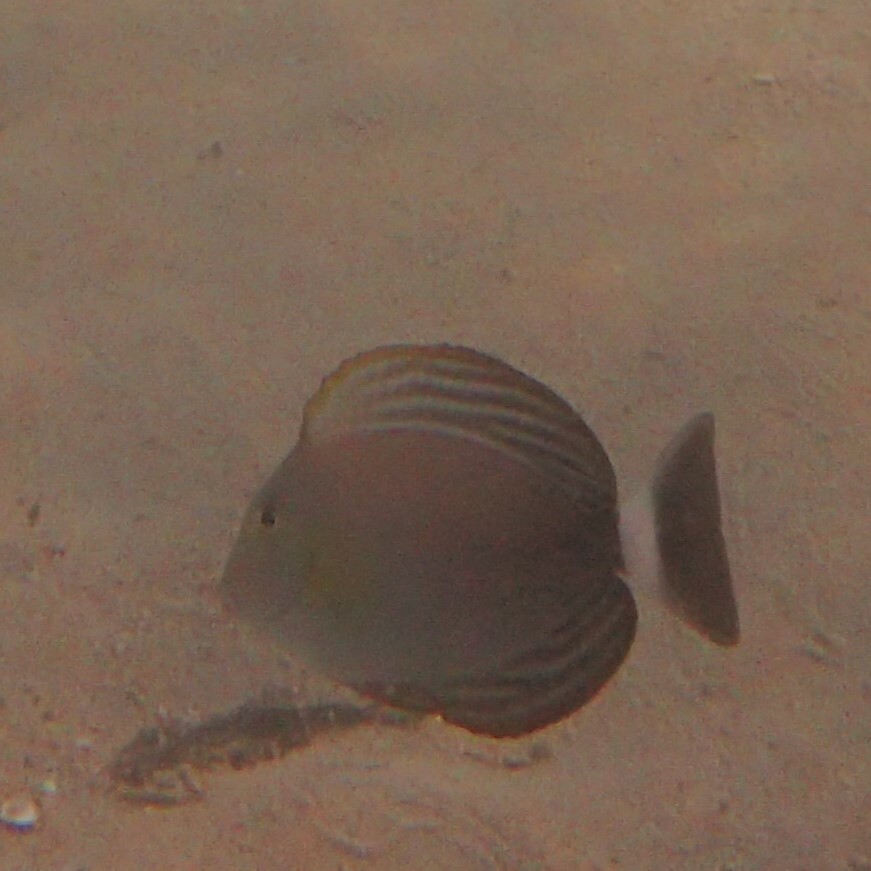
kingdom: Animalia
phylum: Chordata
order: Perciformes
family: Acanthuridae
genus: Acanthurus
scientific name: Acanthurus xanthopterus
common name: Cuvier's surgeonfish
